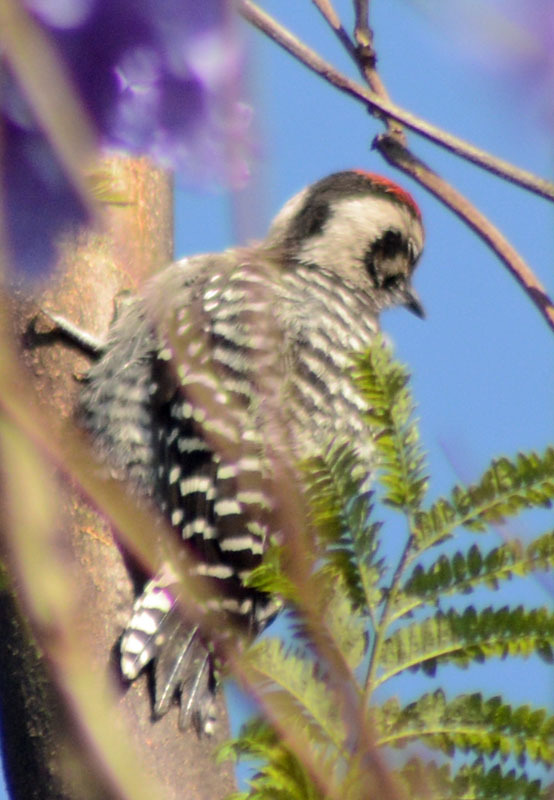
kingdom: Animalia
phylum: Chordata
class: Aves
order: Piciformes
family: Picidae
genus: Dryobates
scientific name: Dryobates scalaris
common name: Ladder-backed woodpecker
